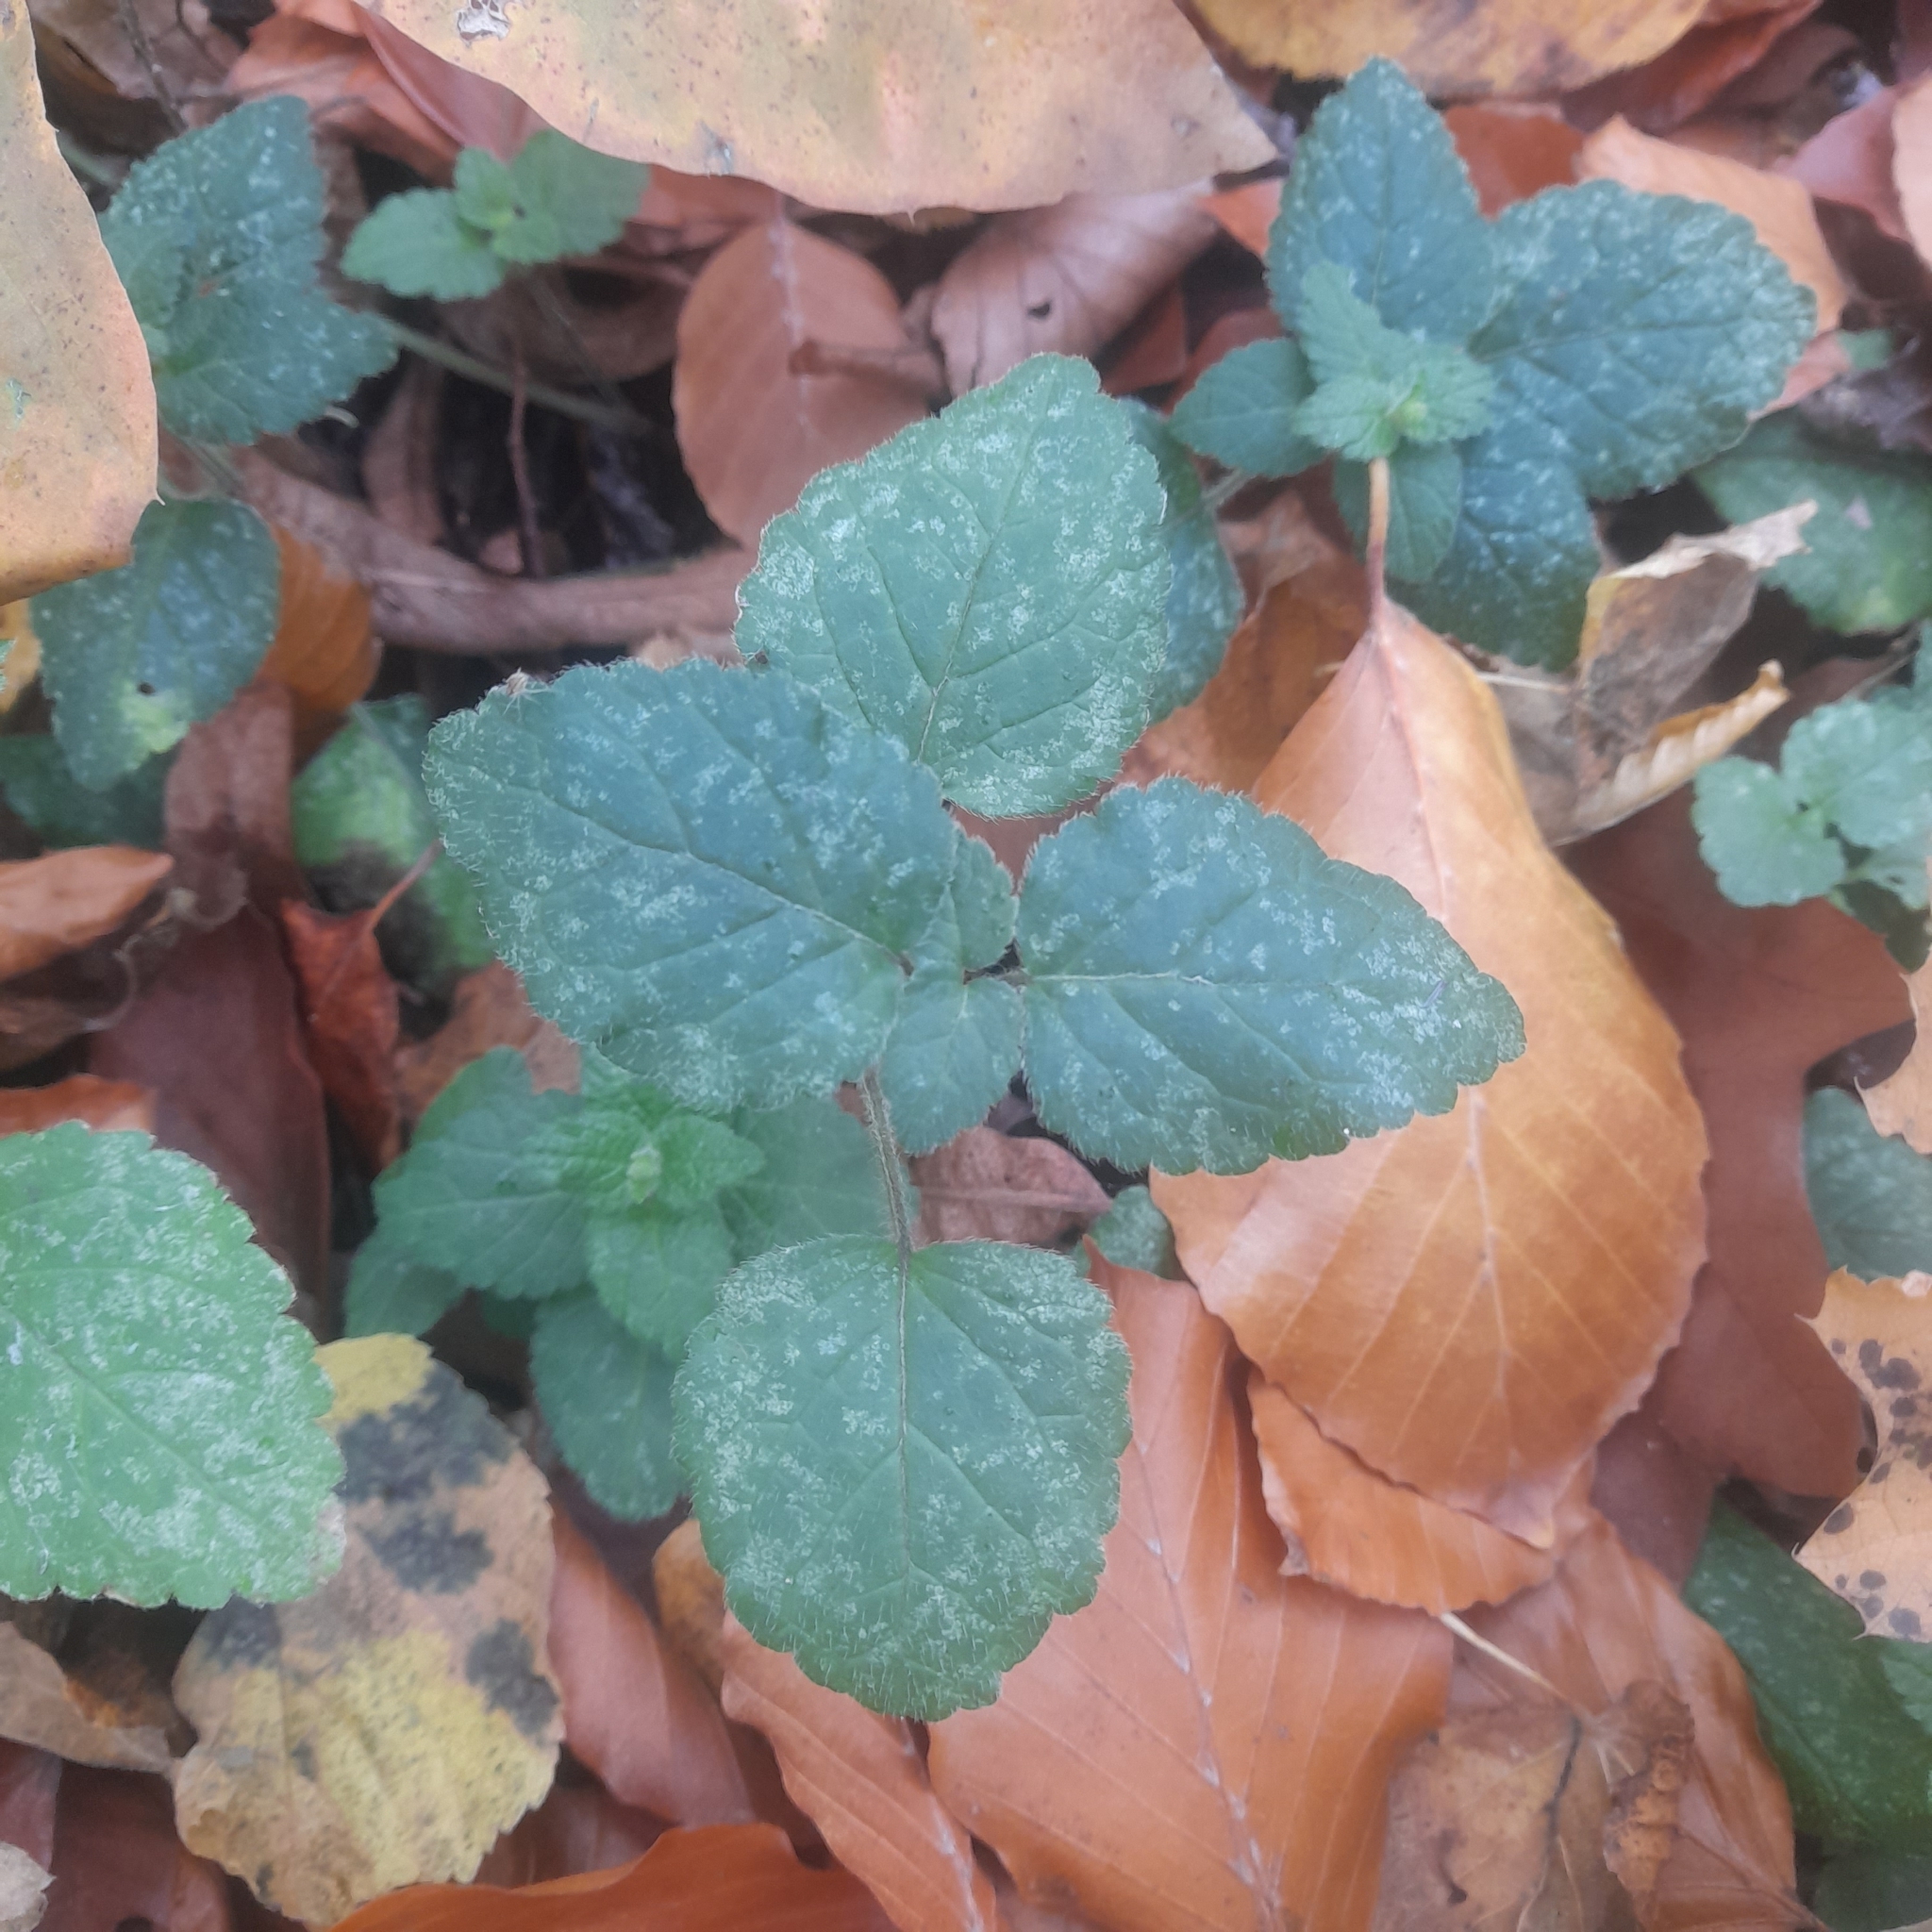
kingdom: Plantae
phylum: Tracheophyta
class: Magnoliopsida
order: Lamiales
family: Lamiaceae
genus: Lamium
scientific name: Lamium galeobdolon
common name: Yellow archangel
